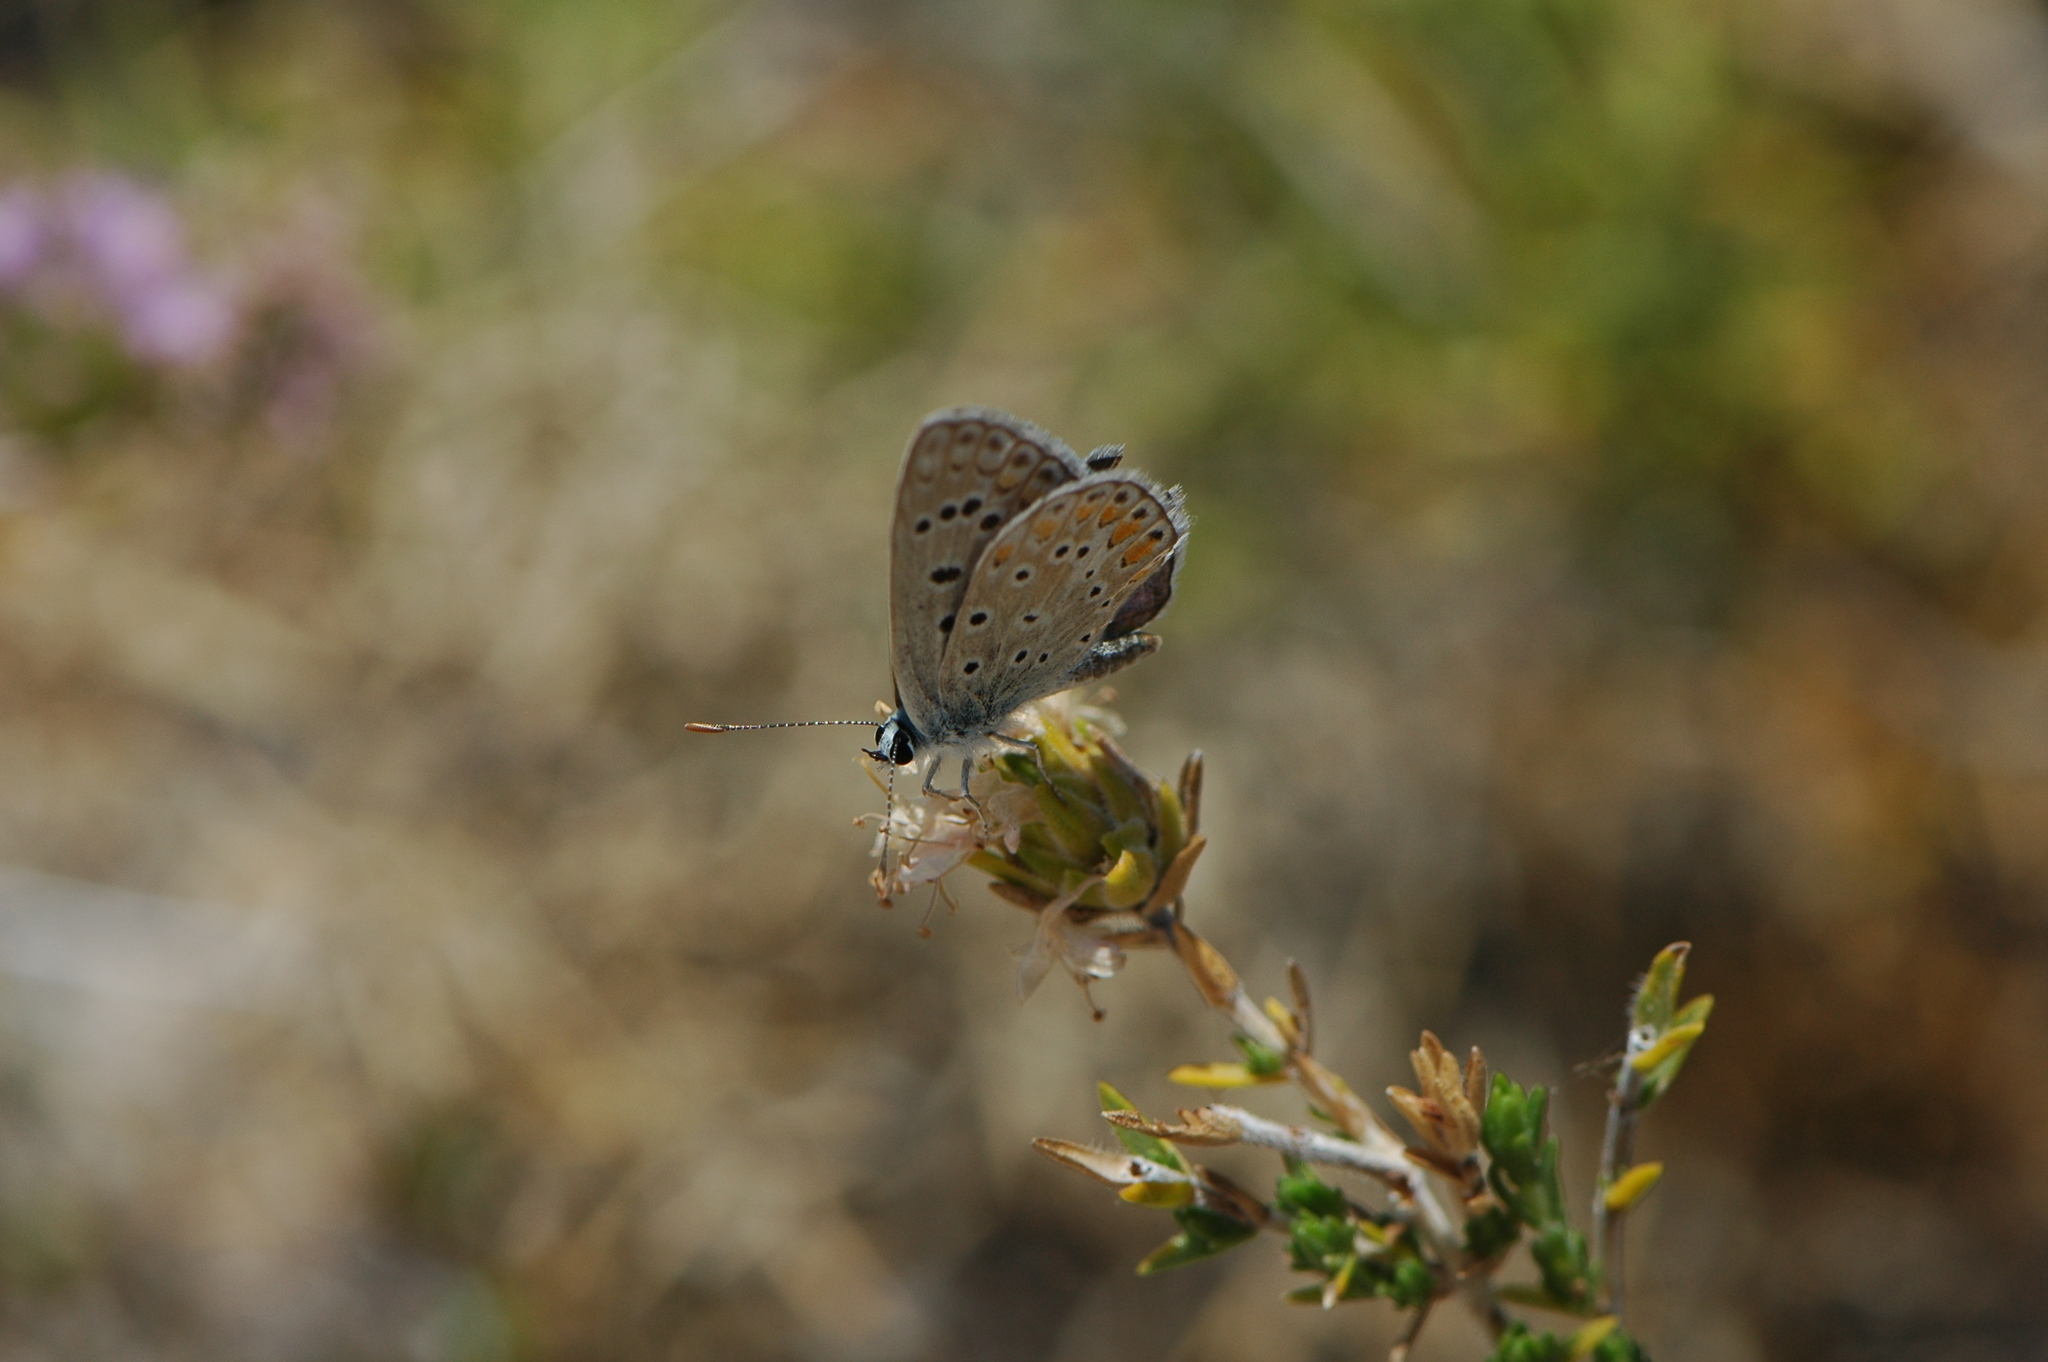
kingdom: Animalia
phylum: Arthropoda
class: Insecta
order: Lepidoptera
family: Lycaenidae
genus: Polyommatus
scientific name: Polyommatus celina
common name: Austaut's blue
